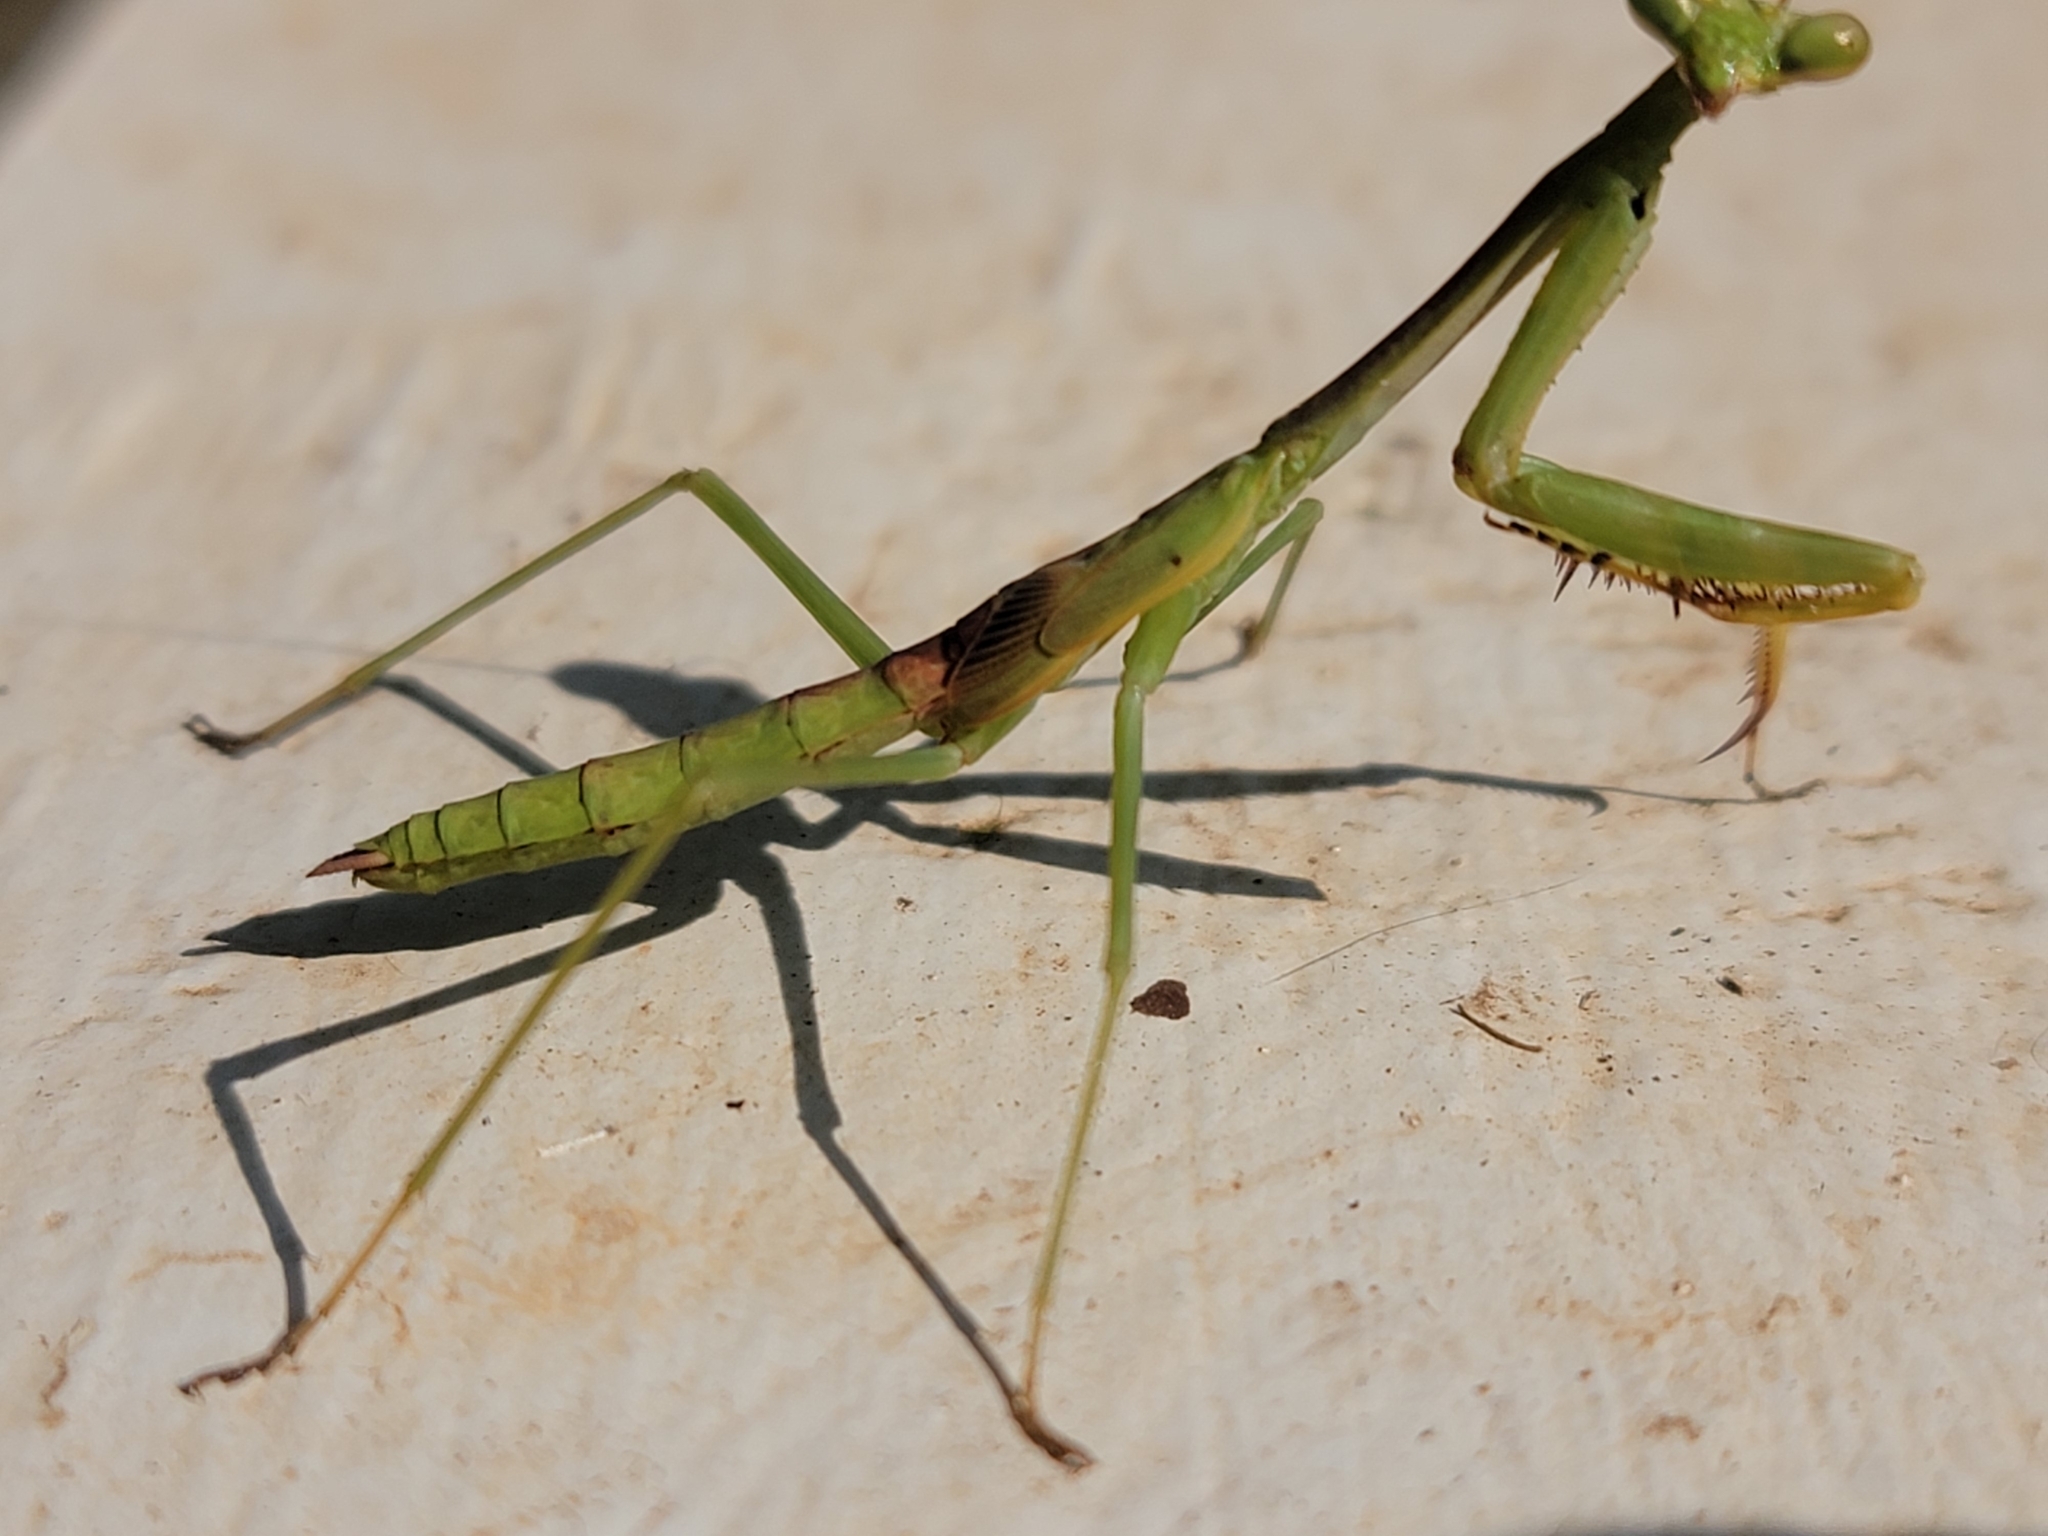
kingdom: Animalia
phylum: Arthropoda
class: Insecta
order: Mantodea
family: Mantidae
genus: Stagmomantis
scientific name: Stagmomantis carolina
